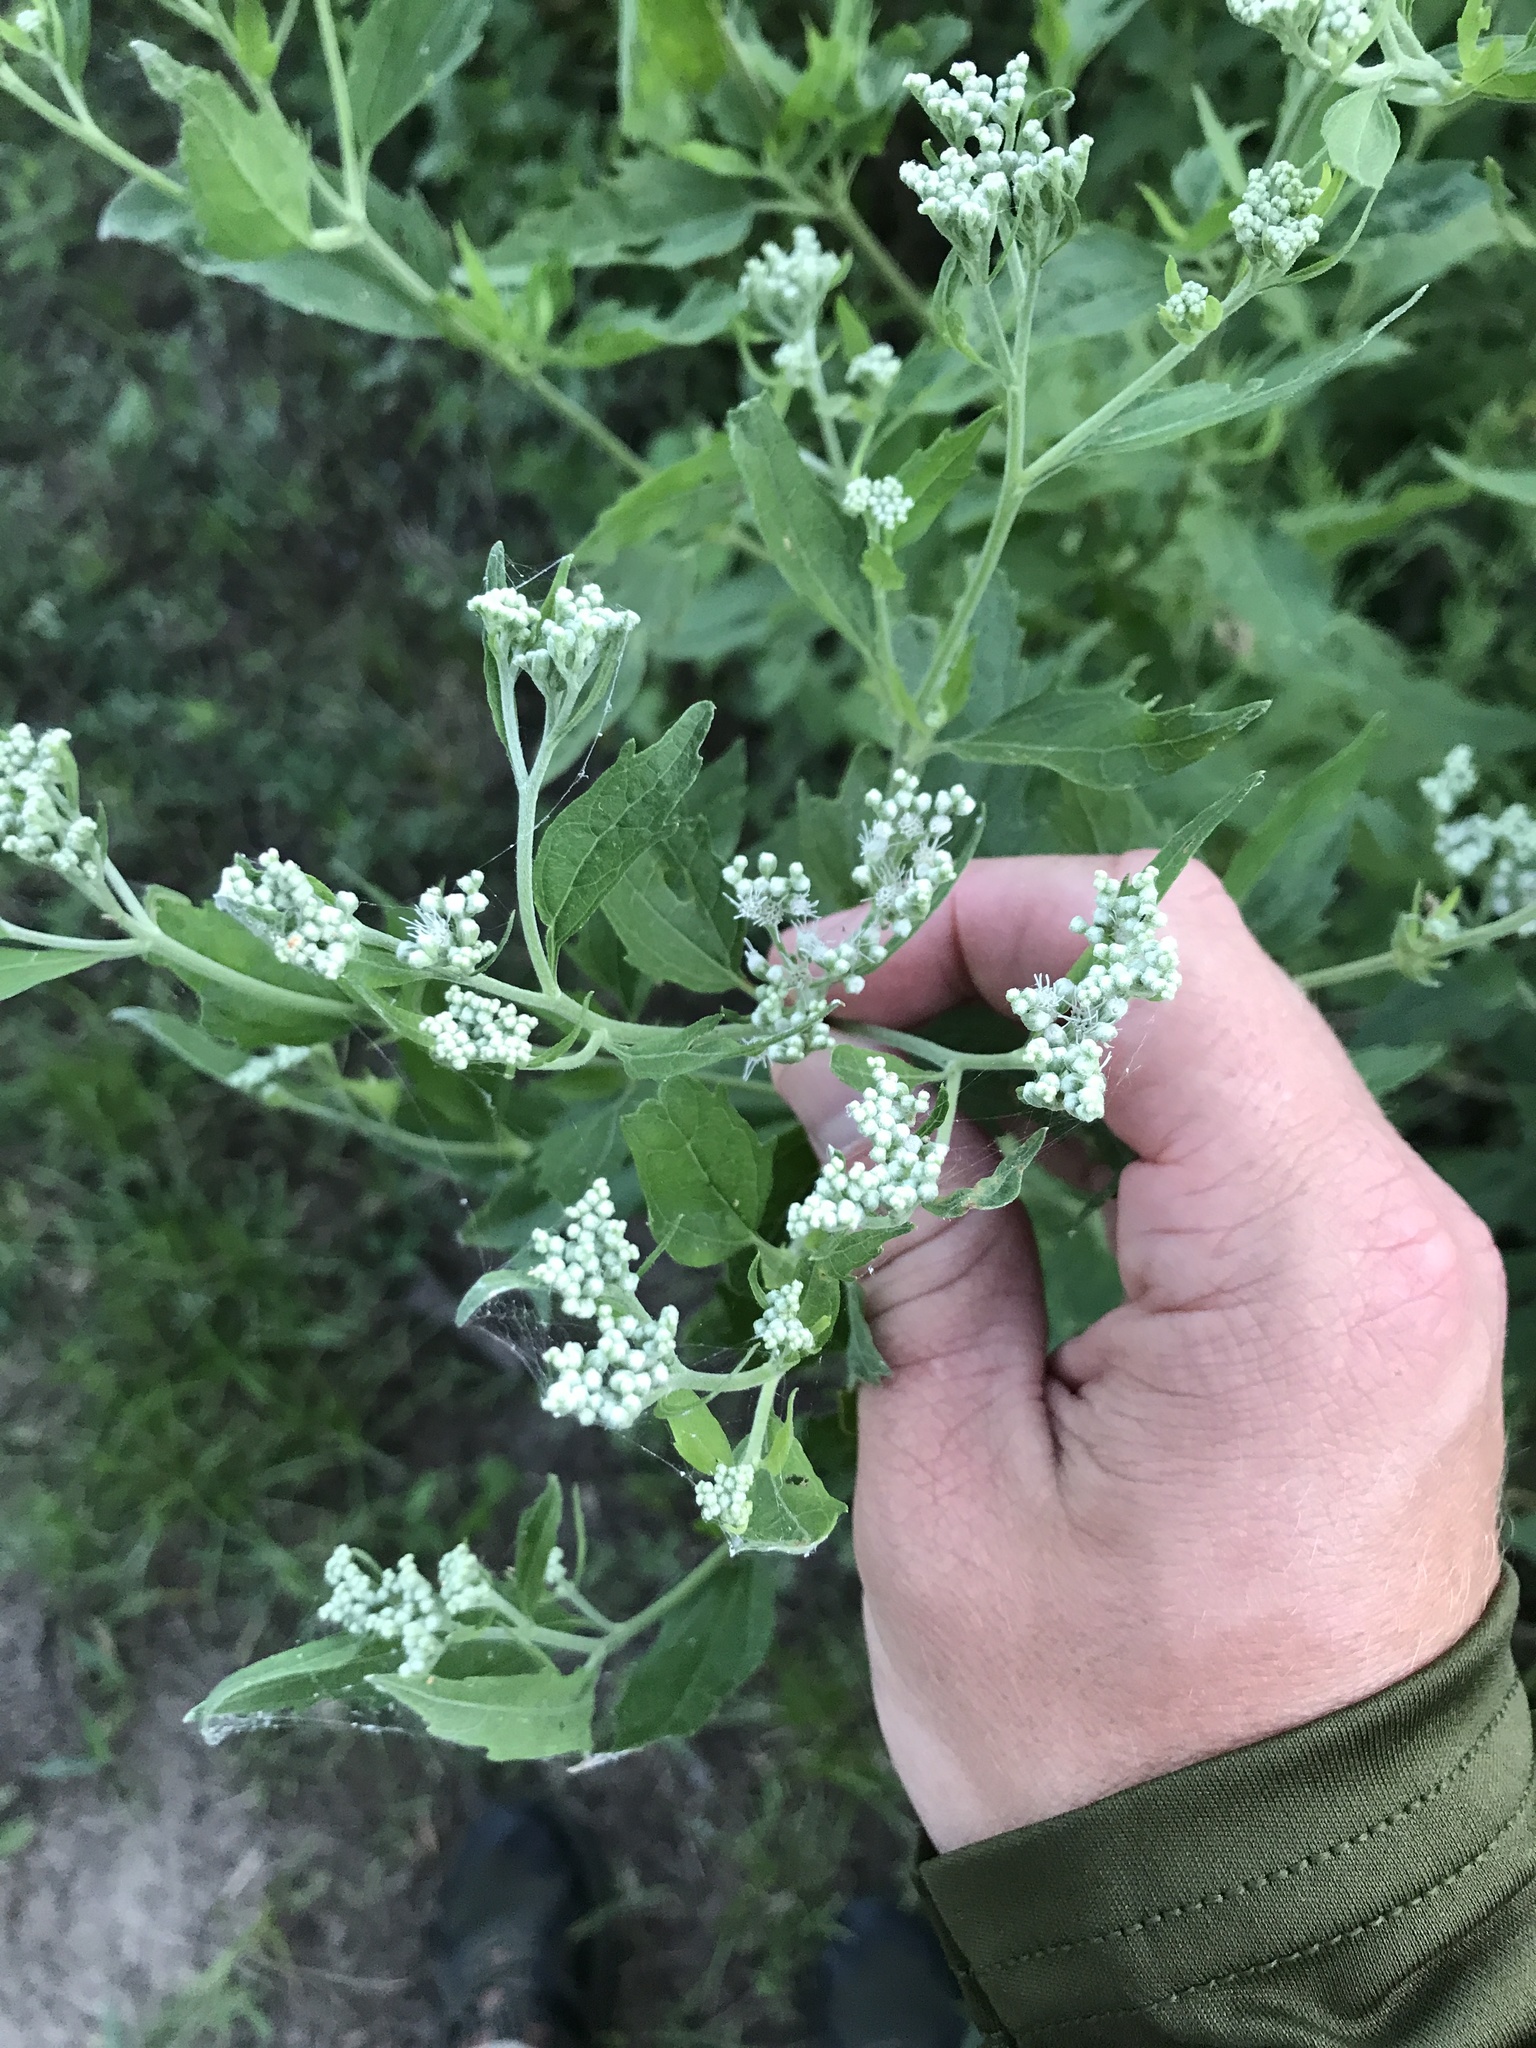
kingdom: Plantae
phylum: Tracheophyta
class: Magnoliopsida
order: Asterales
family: Asteraceae
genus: Eupatorium
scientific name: Eupatorium serotinum
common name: Late boneset
